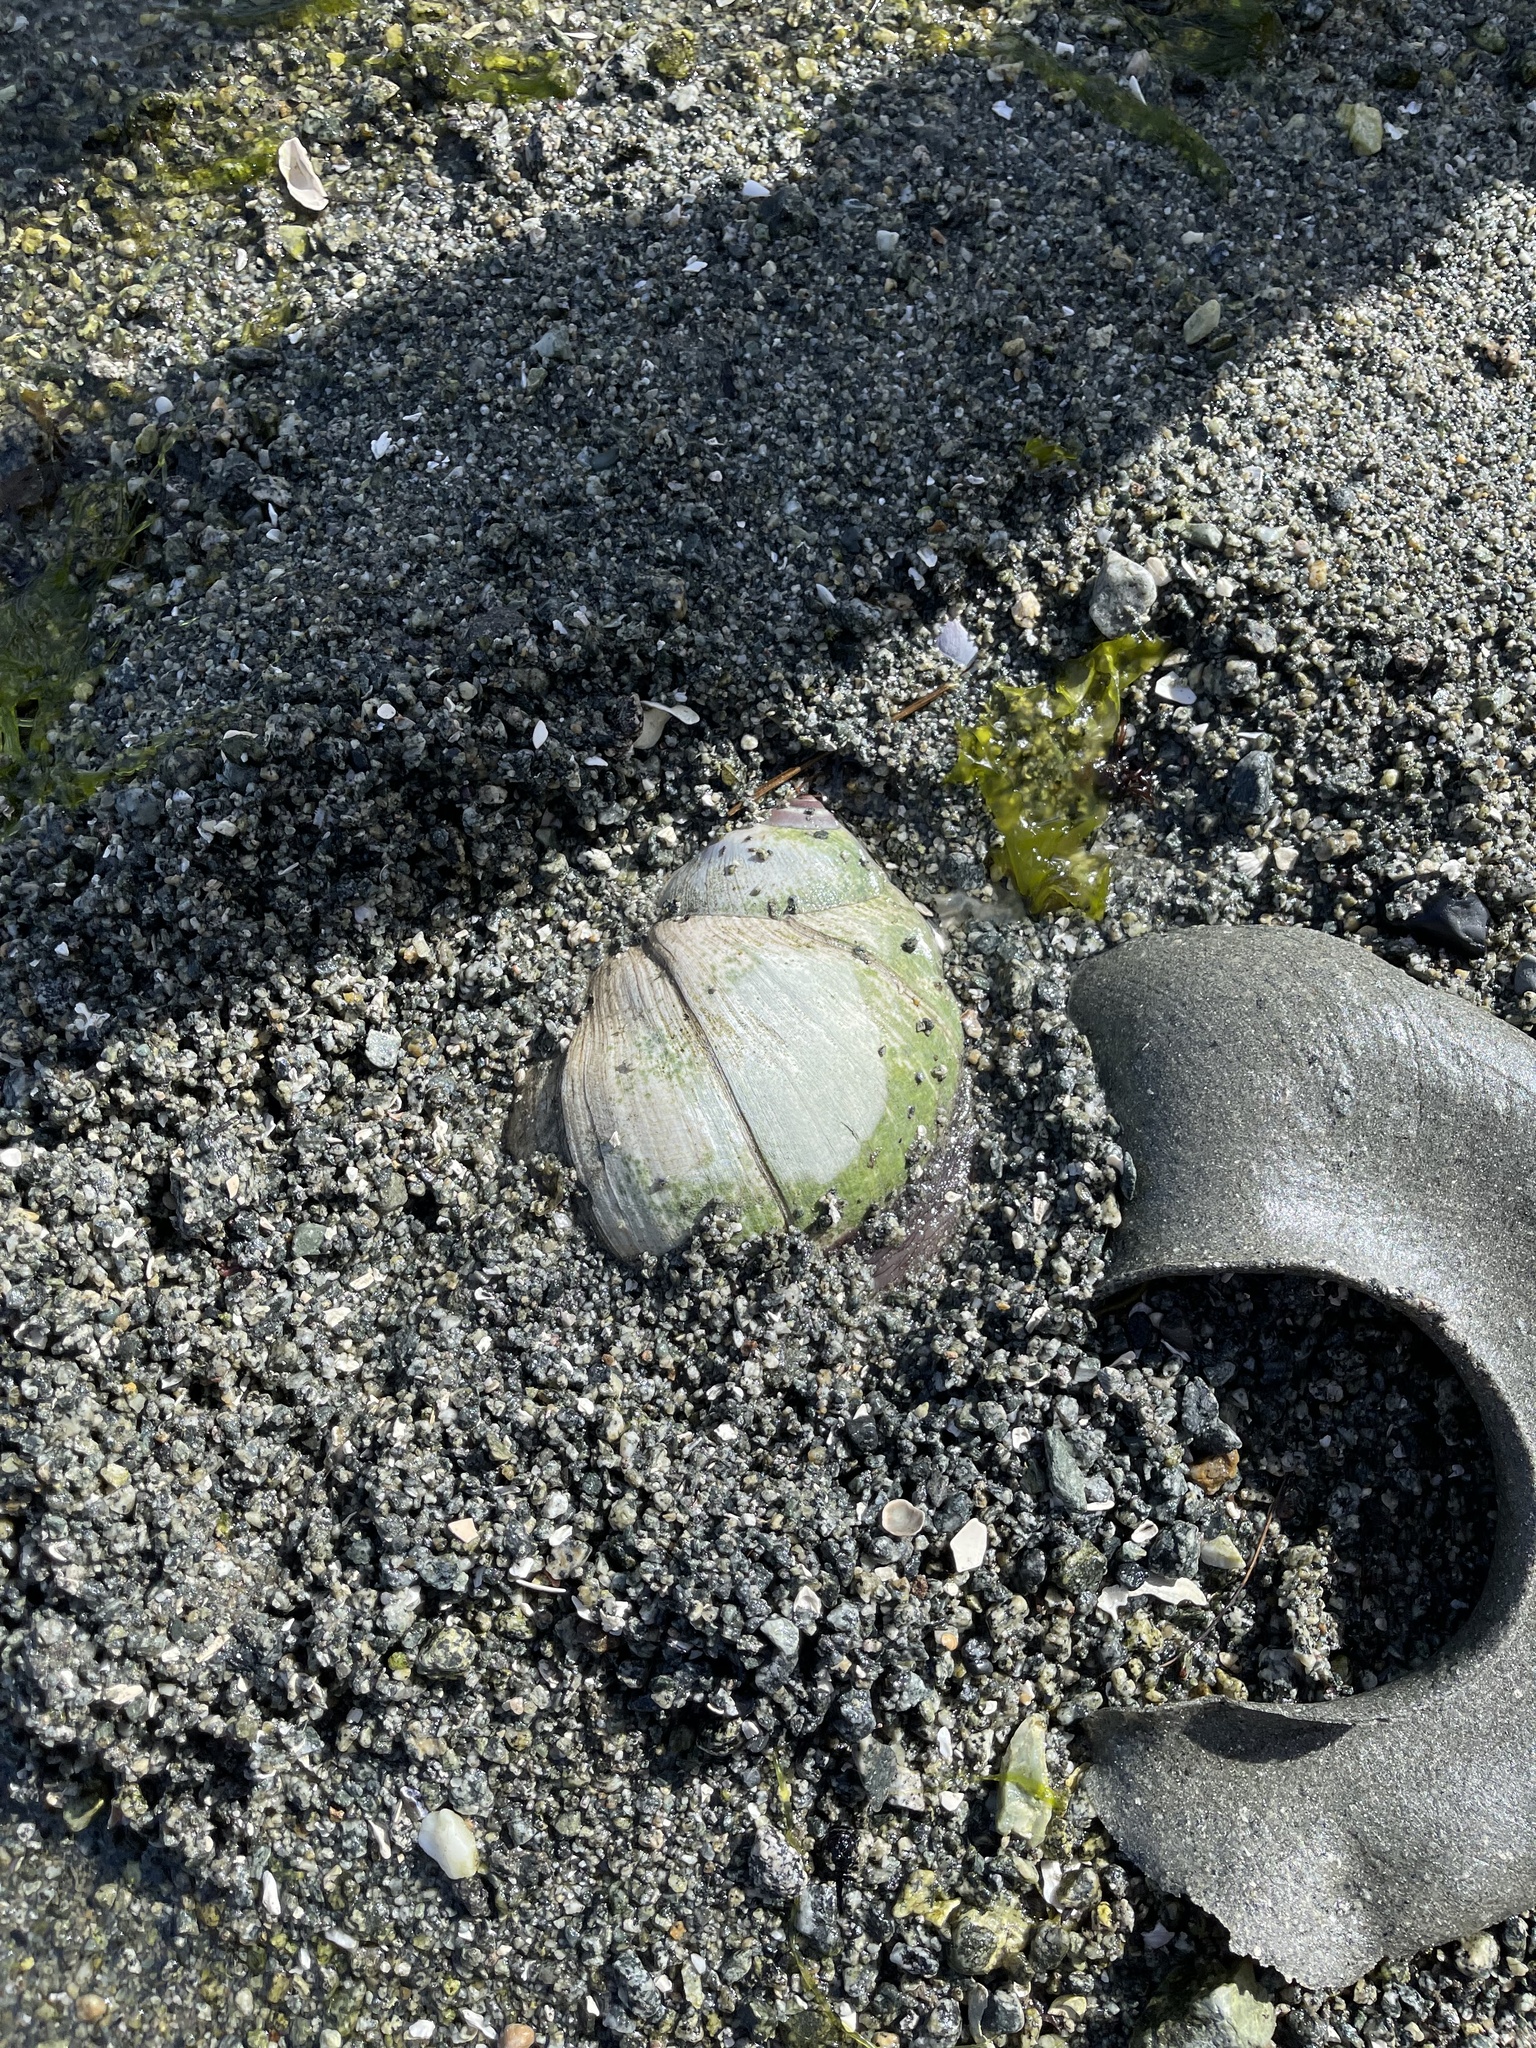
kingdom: Animalia
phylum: Mollusca
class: Gastropoda
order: Littorinimorpha
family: Naticidae
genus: Neverita
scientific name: Neverita lewisii
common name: Lewis' moonsnail
